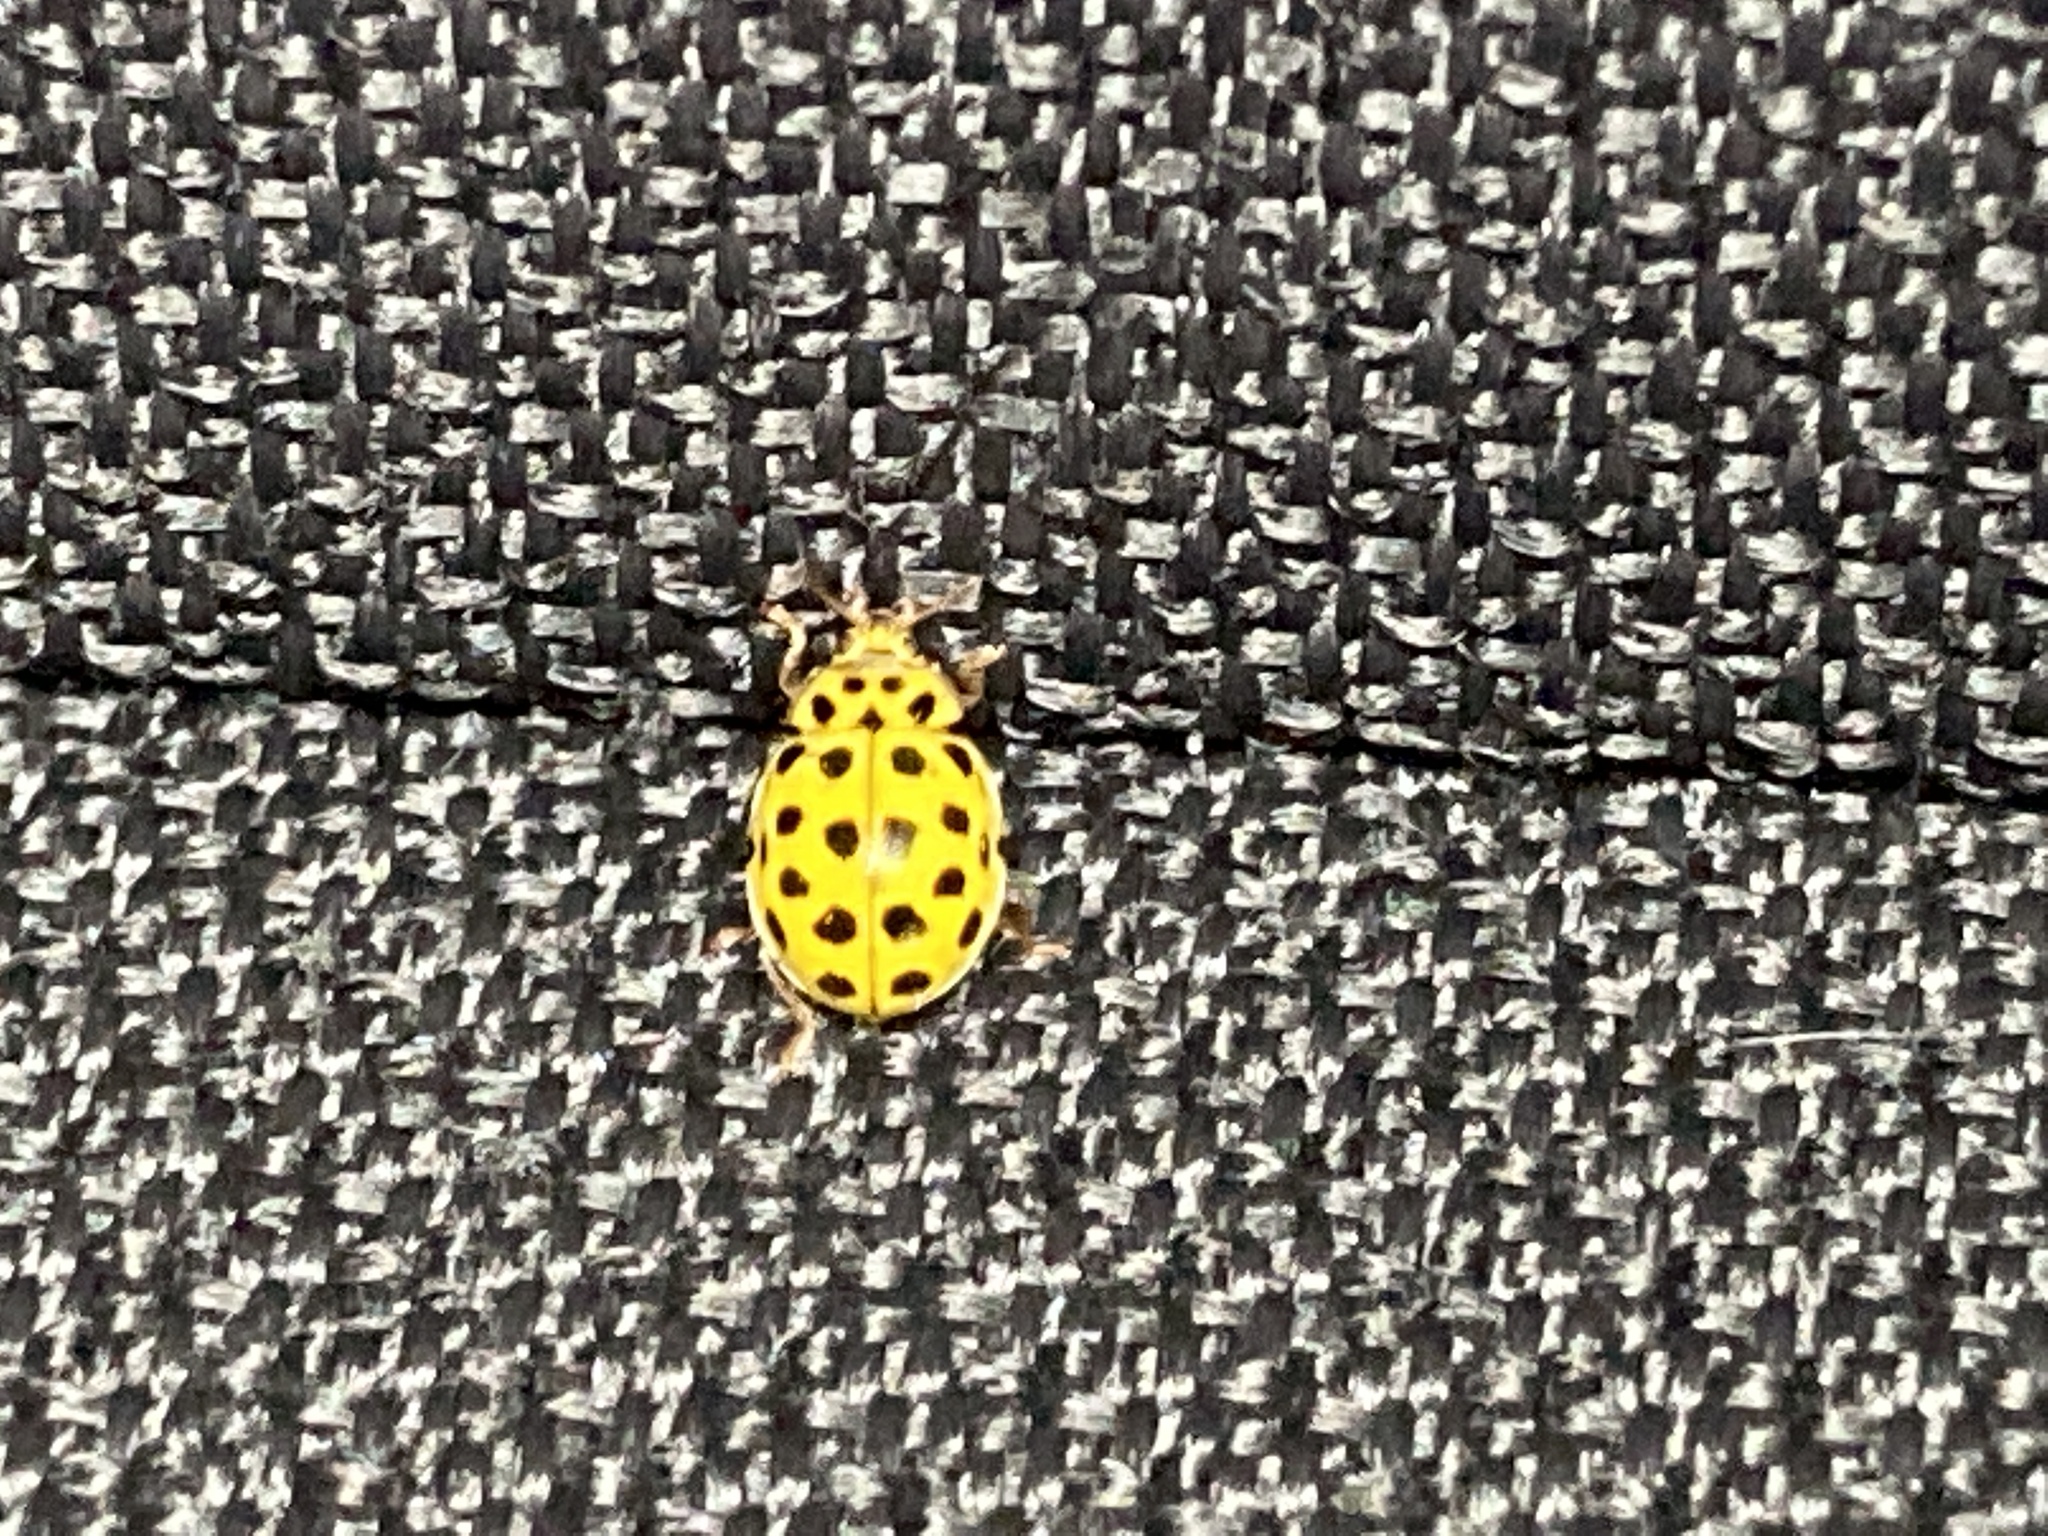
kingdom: Animalia
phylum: Arthropoda
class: Insecta
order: Coleoptera
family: Coccinellidae
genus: Psyllobora
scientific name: Psyllobora vigintiduopunctata
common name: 22-spot ladybird
